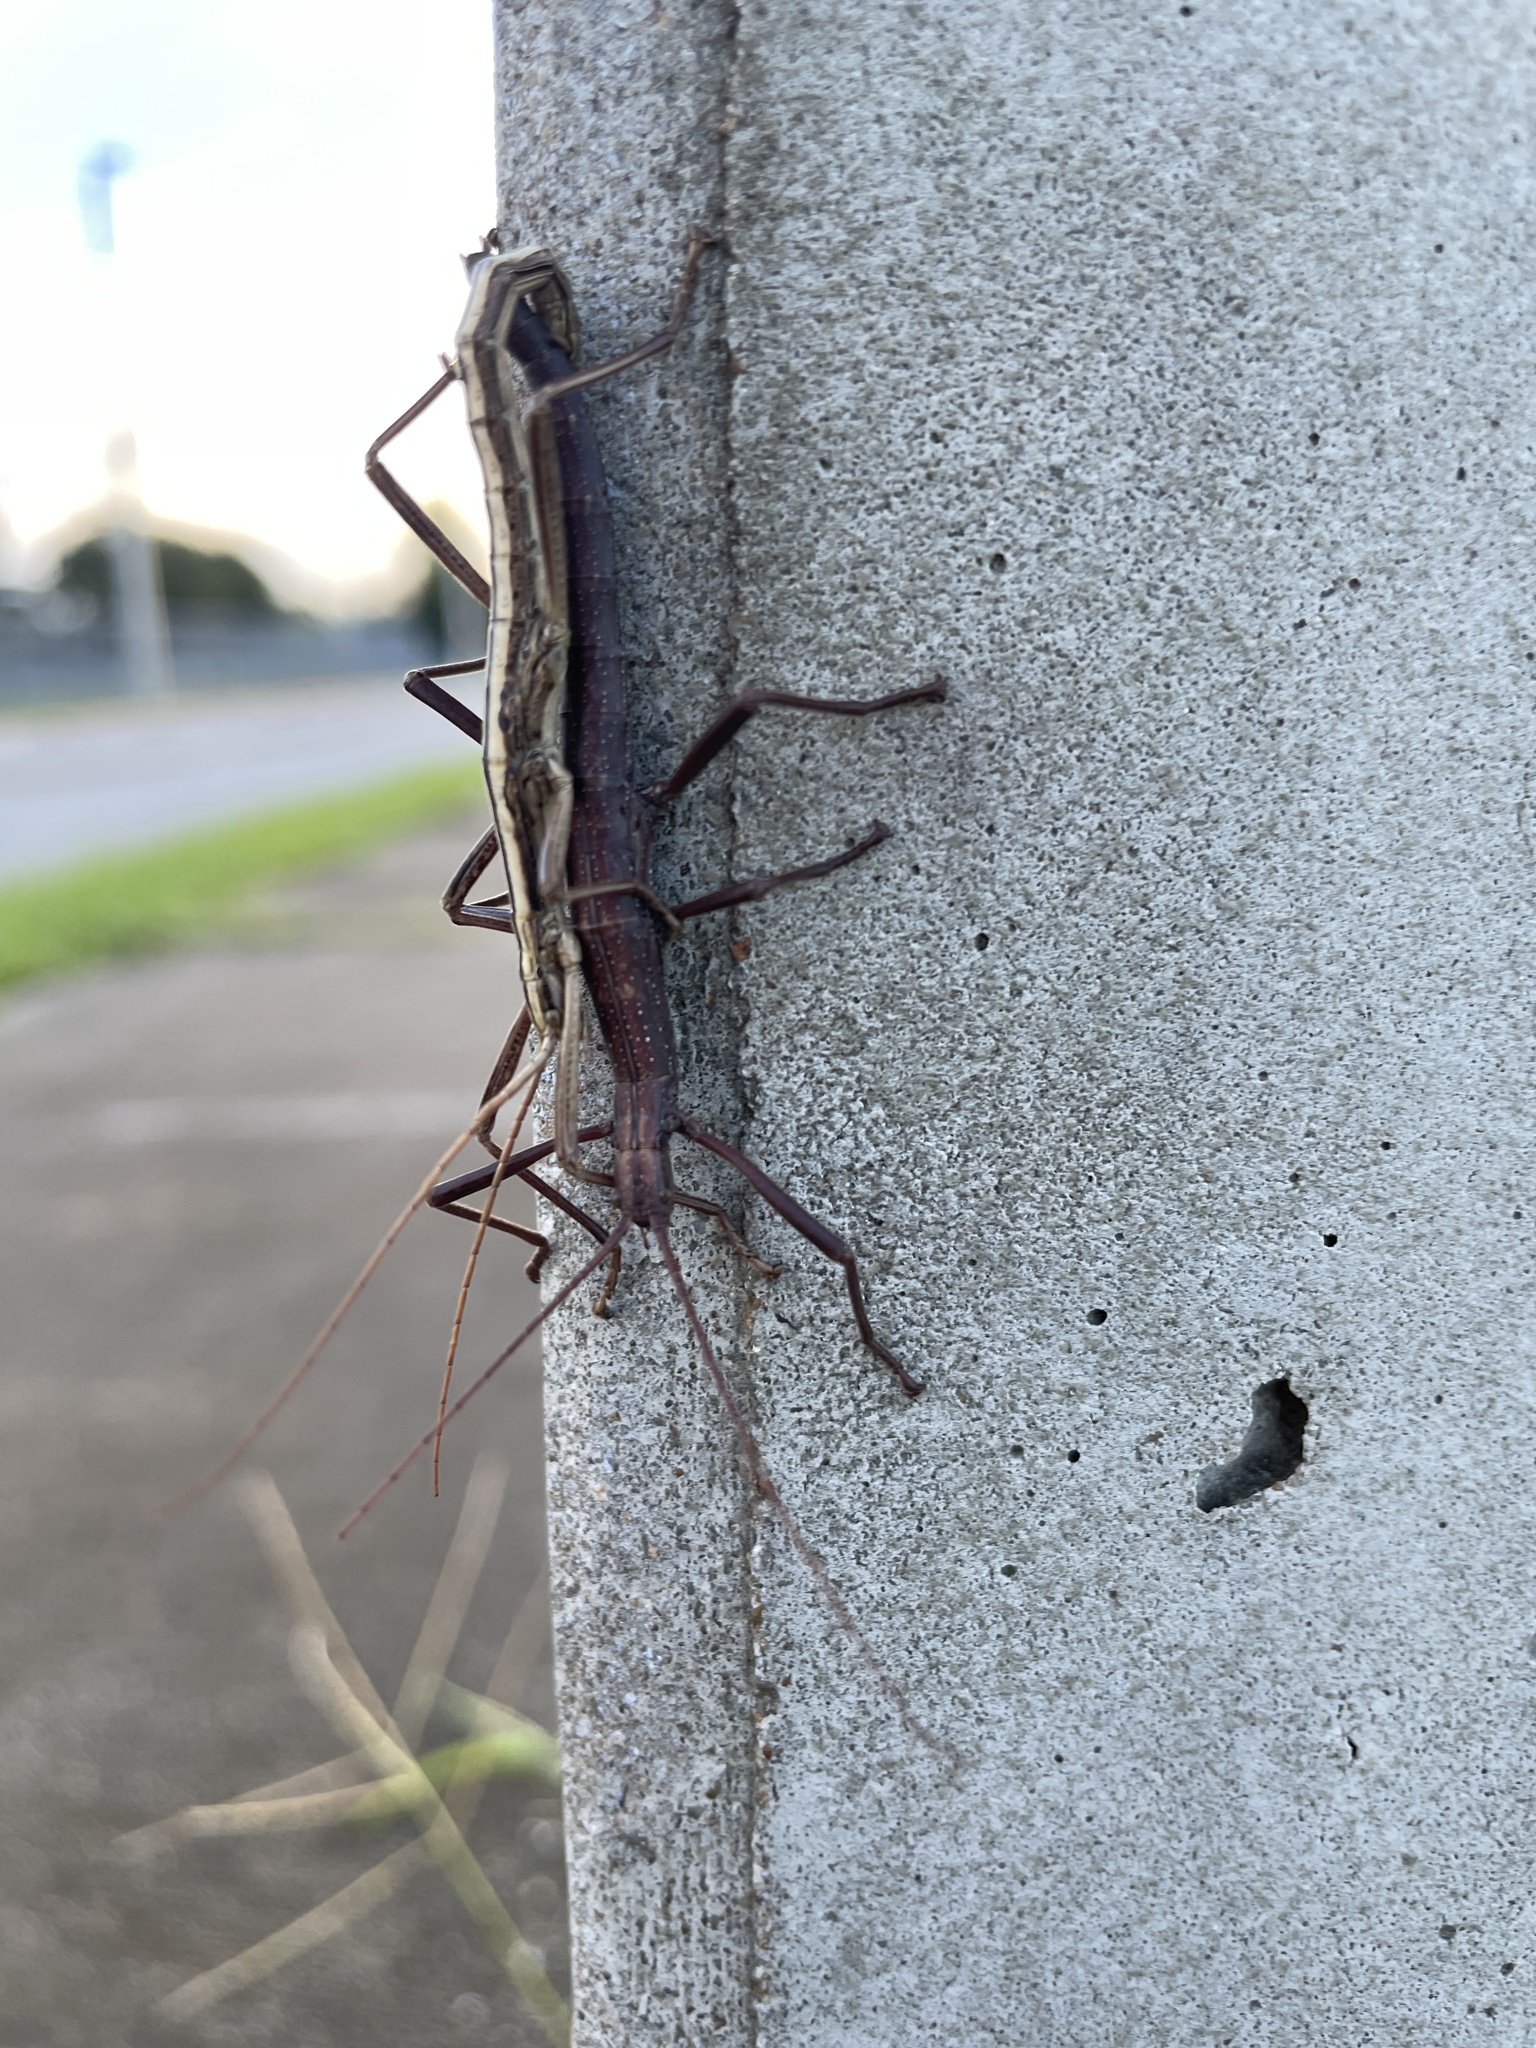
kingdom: Animalia
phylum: Arthropoda
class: Insecta
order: Phasmida
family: Pseudophasmatidae
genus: Anisomorpha
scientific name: Anisomorpha buprestoides
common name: Florida stick insect
